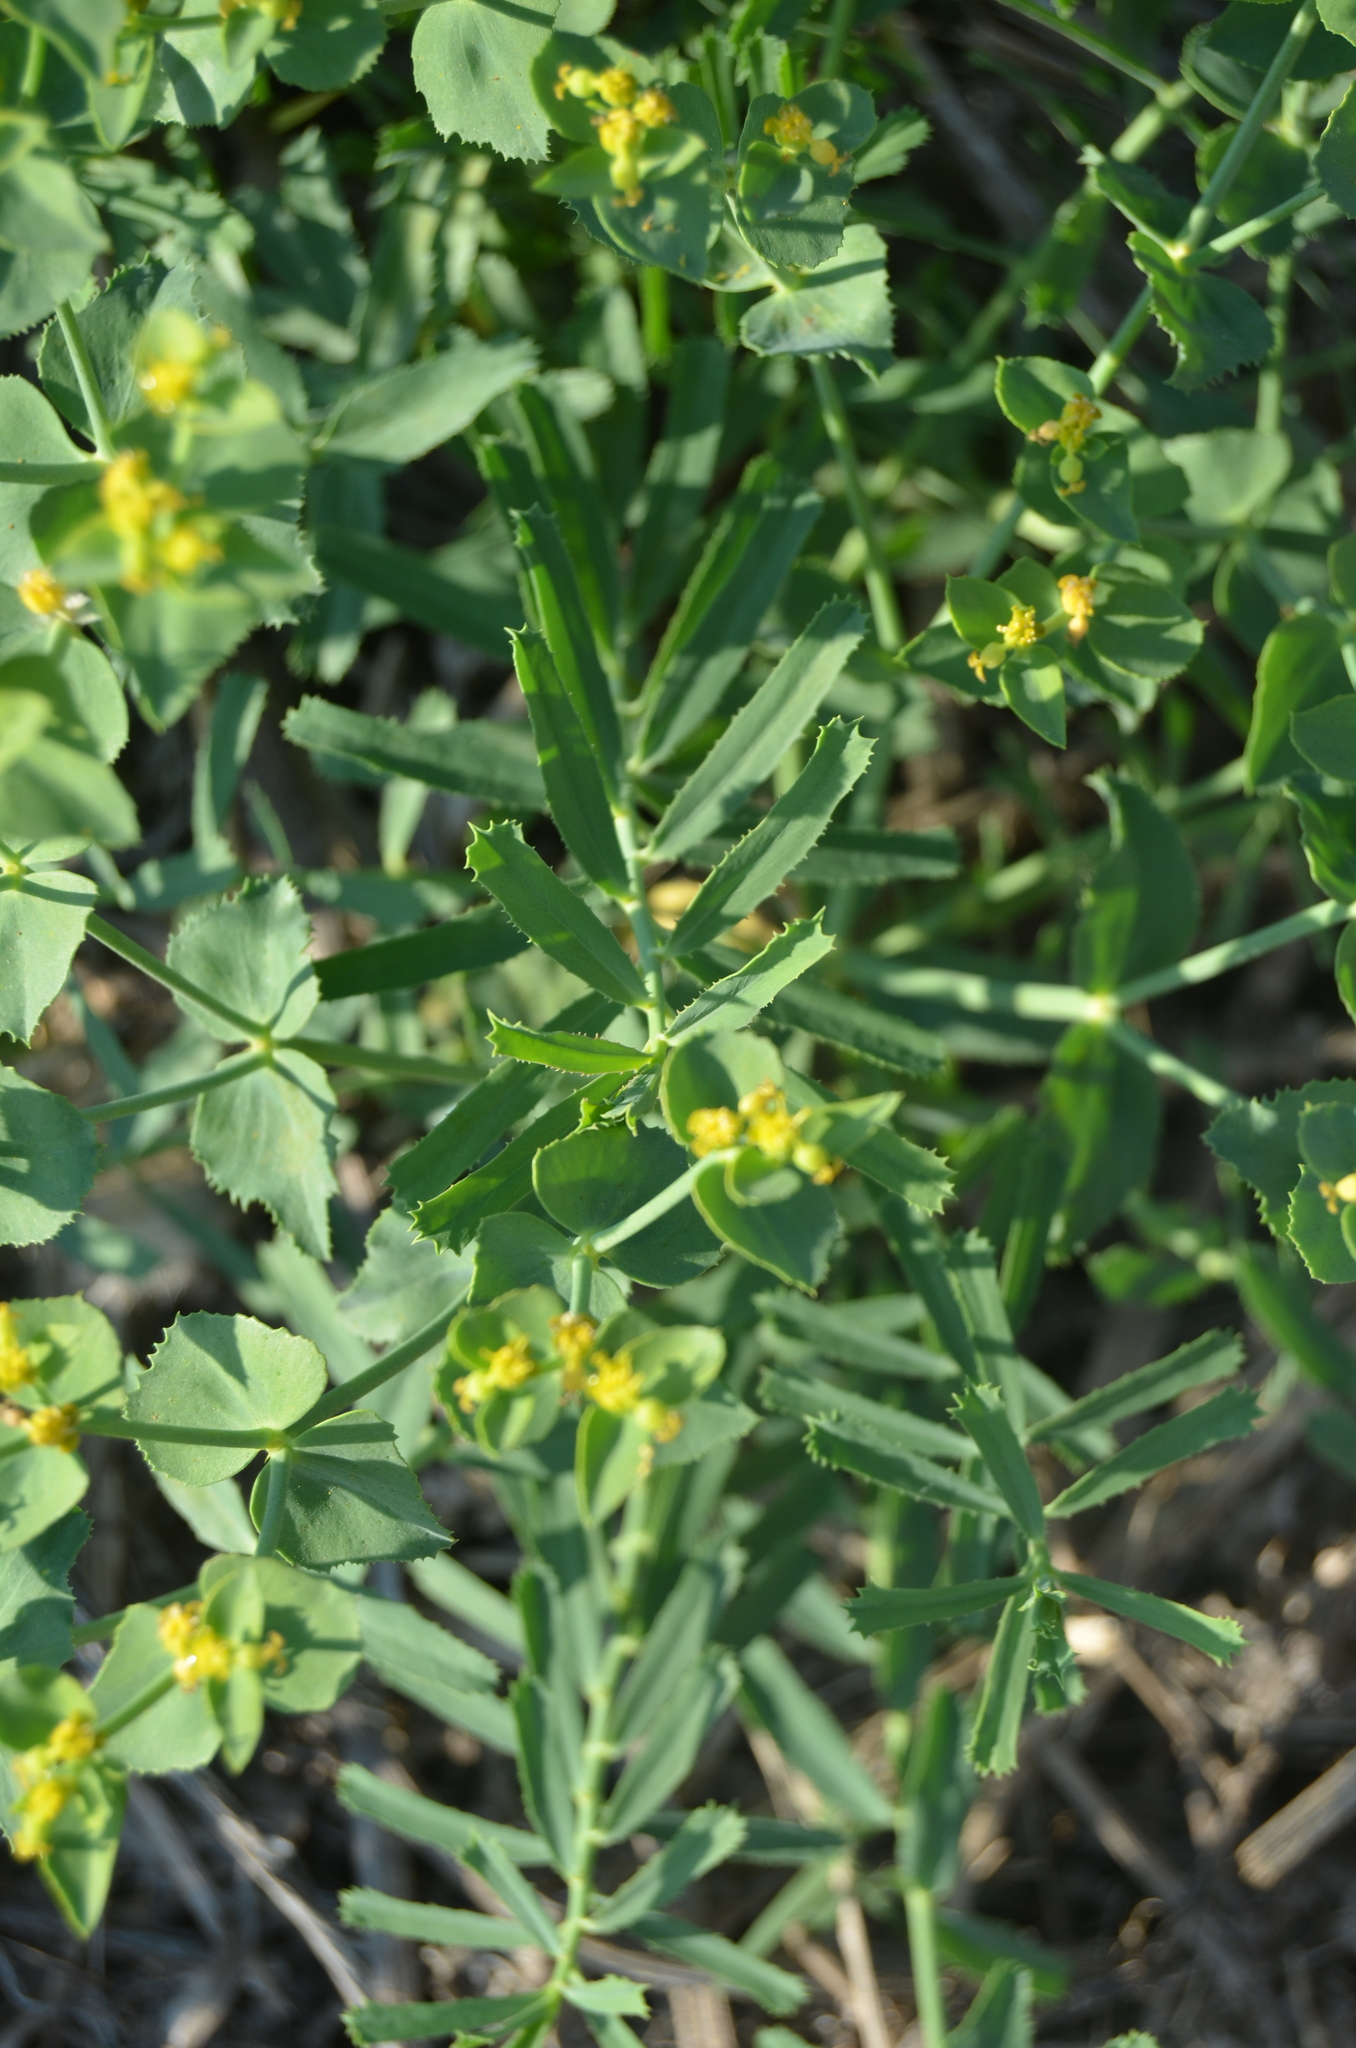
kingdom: Plantae
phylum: Tracheophyta
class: Magnoliopsida
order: Malpighiales
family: Euphorbiaceae
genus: Euphorbia
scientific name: Euphorbia serrata
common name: Serrate spurge
